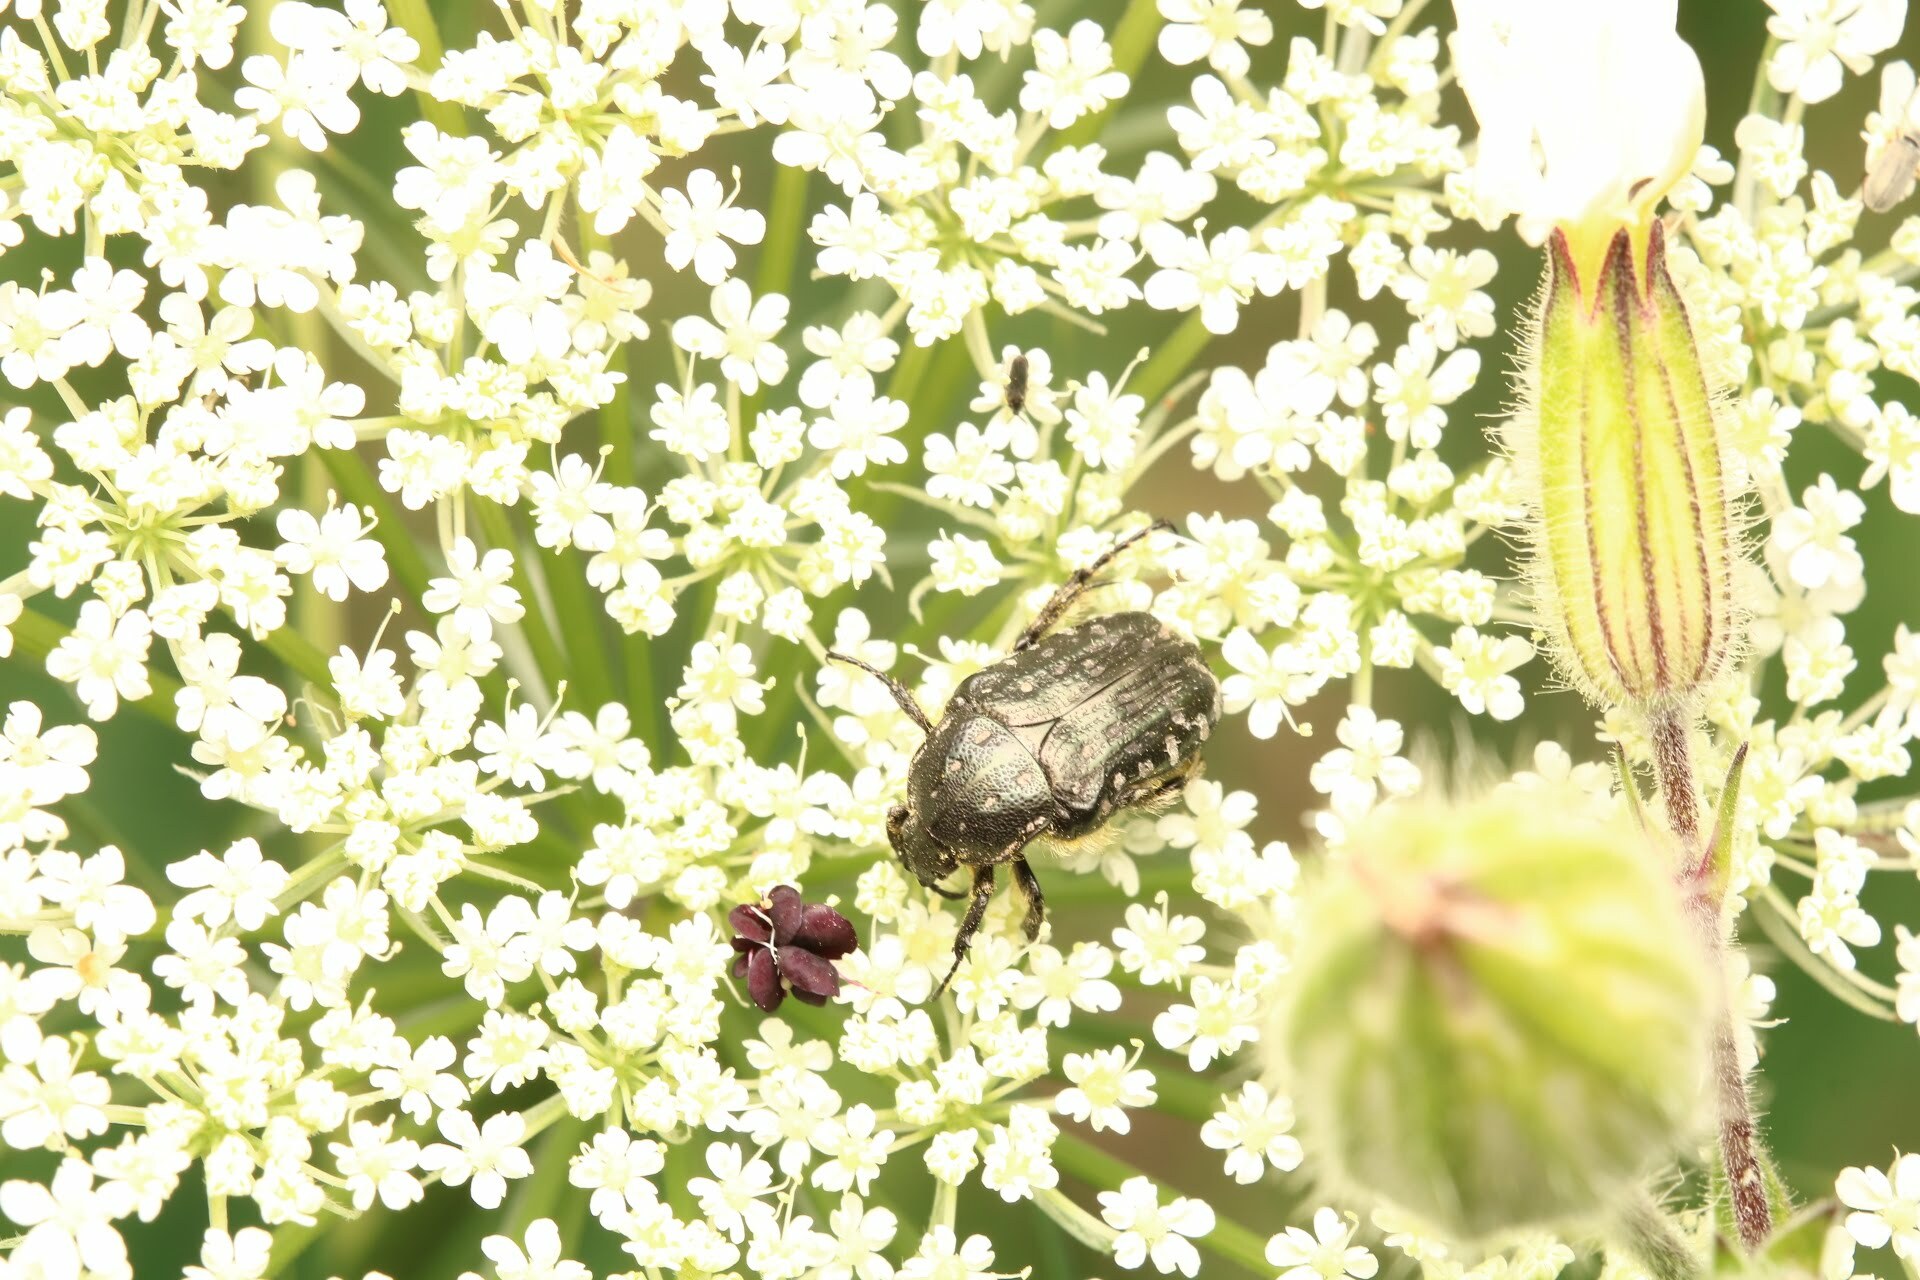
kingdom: Animalia
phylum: Arthropoda
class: Insecta
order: Coleoptera
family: Scarabaeidae
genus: Oxythyrea
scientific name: Oxythyrea funesta
